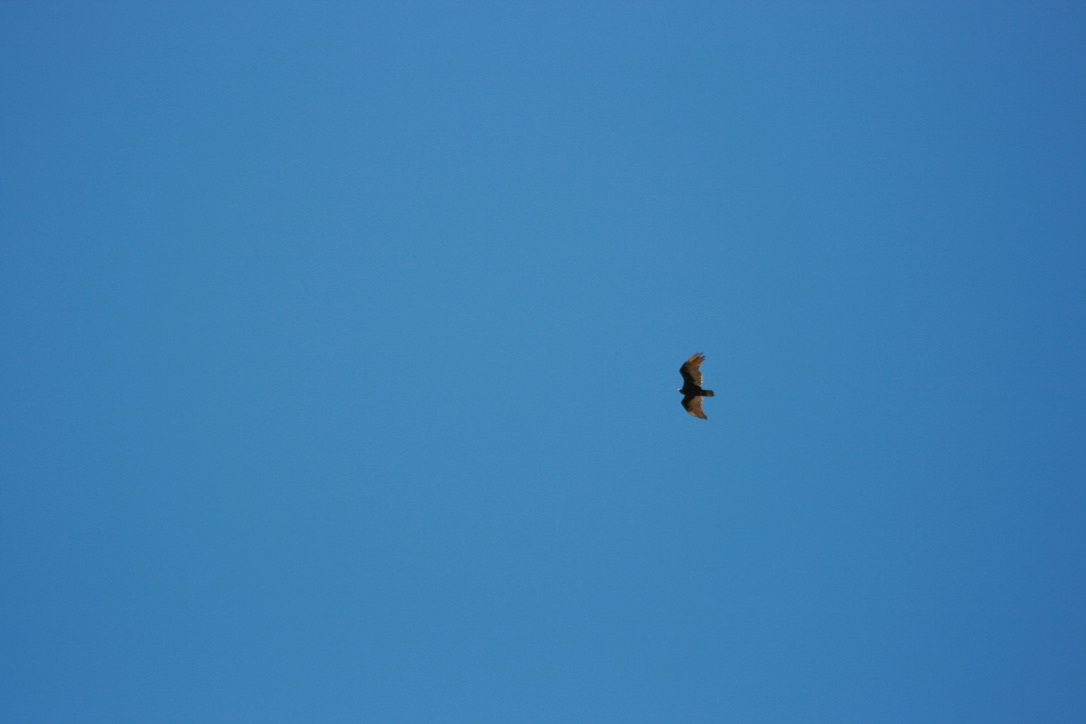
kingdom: Animalia
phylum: Chordata
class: Aves
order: Accipitriformes
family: Cathartidae
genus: Cathartes
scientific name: Cathartes aura
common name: Turkey vulture
